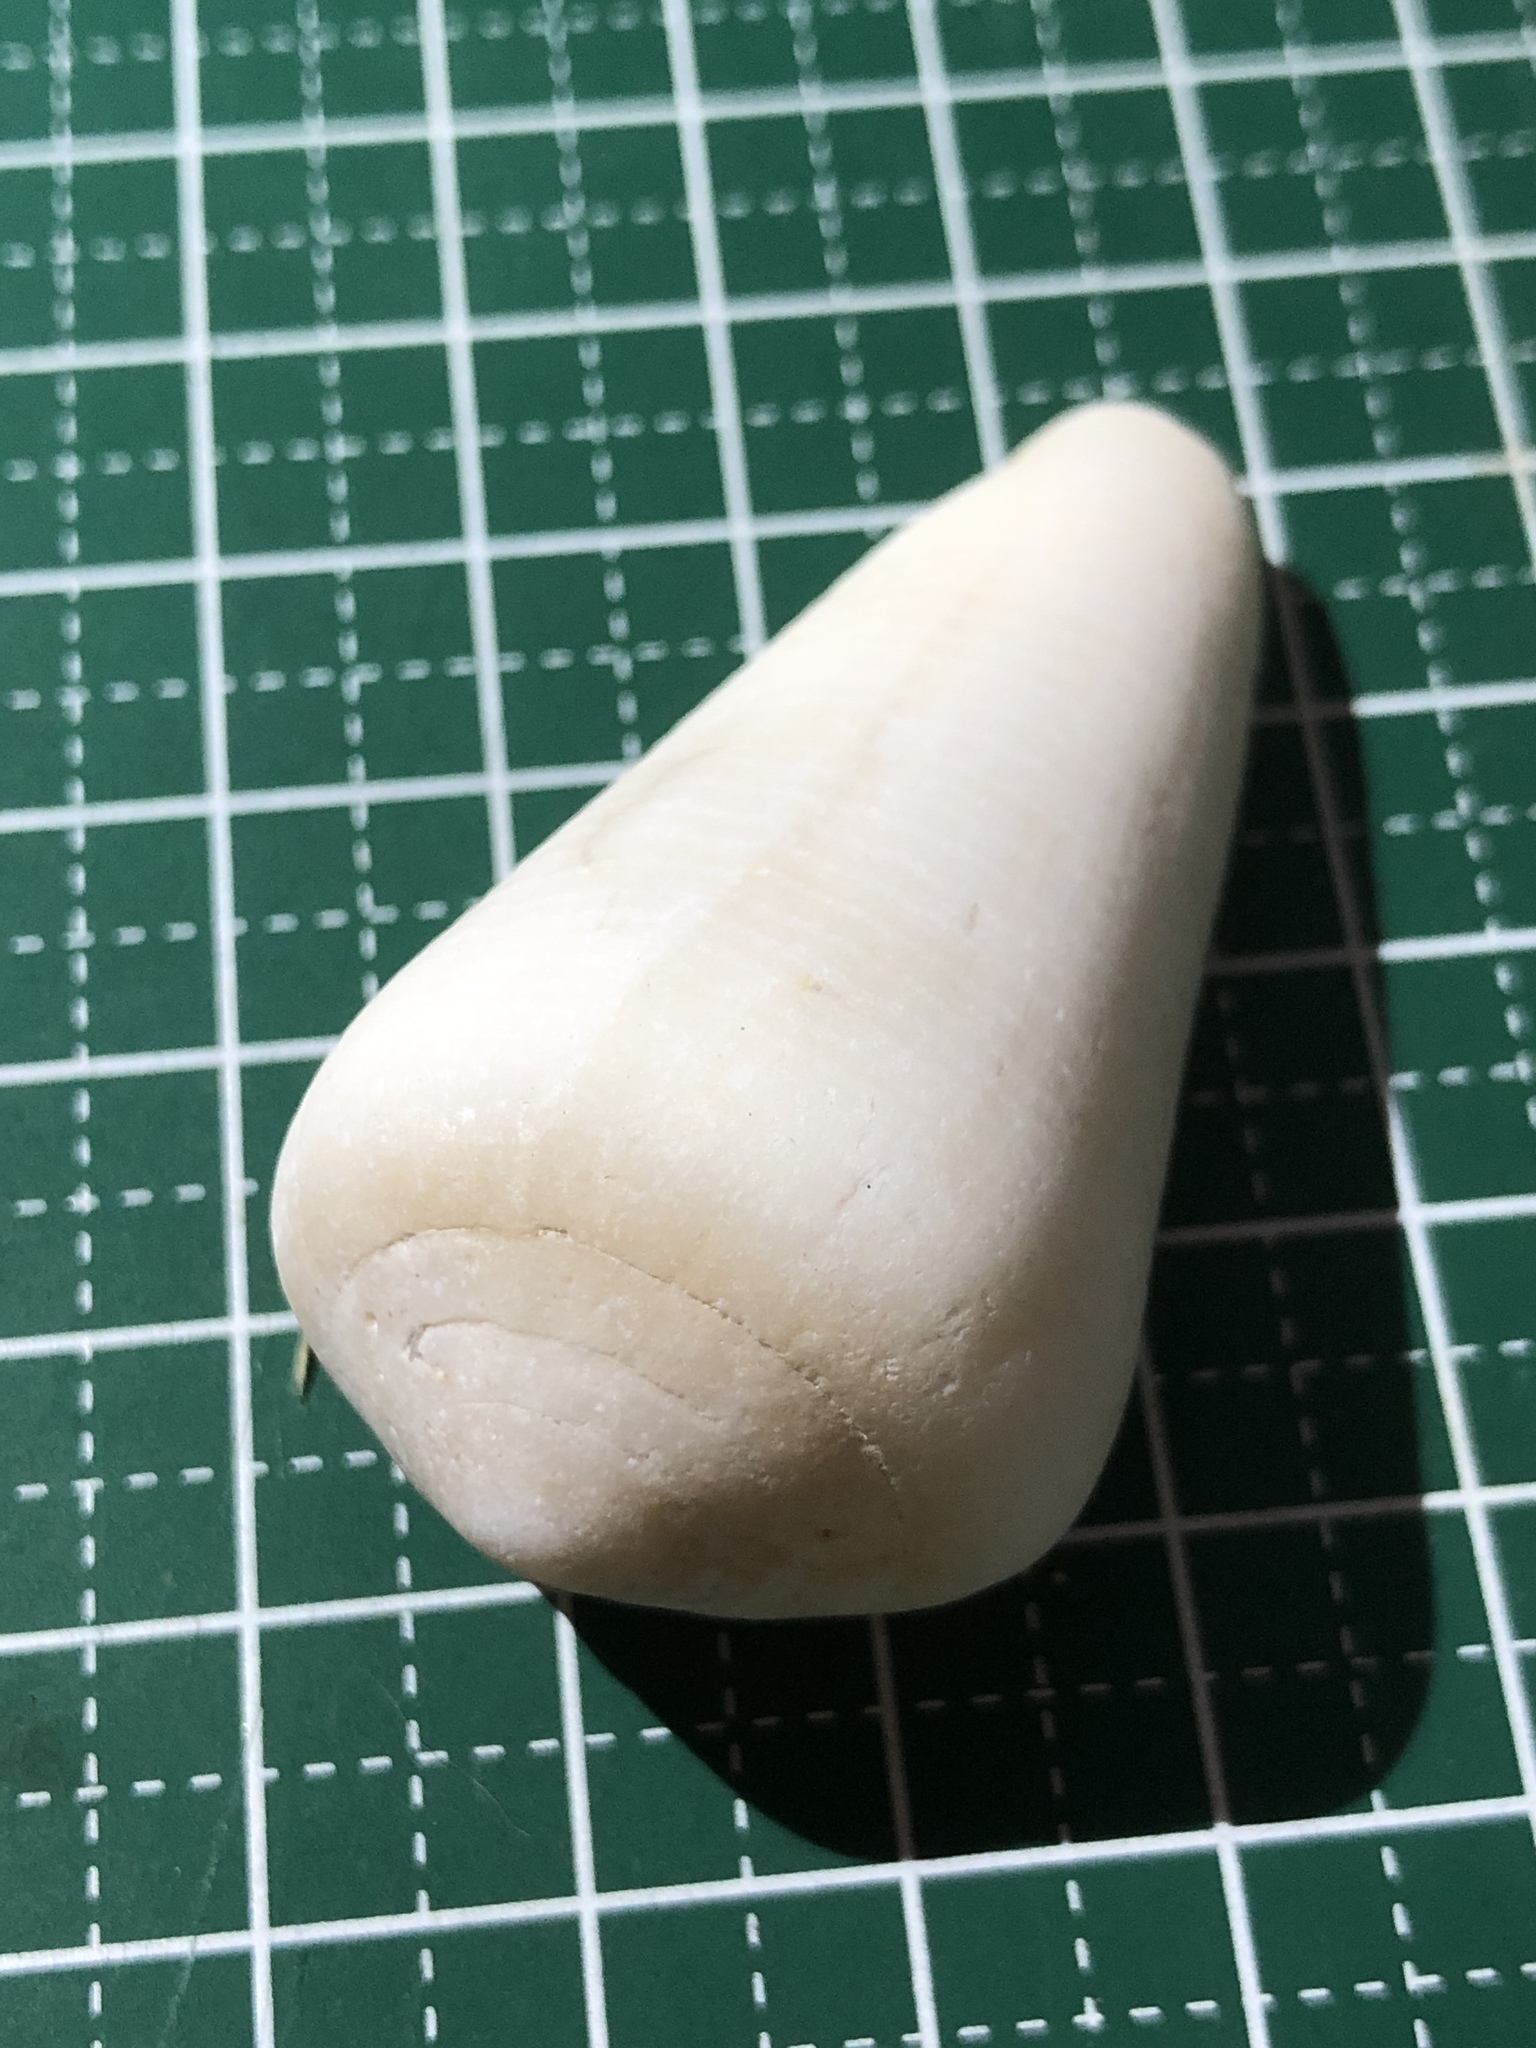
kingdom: Animalia
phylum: Mollusca
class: Gastropoda
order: Neogastropoda
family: Conidae
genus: Conus
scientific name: Conus terebra
